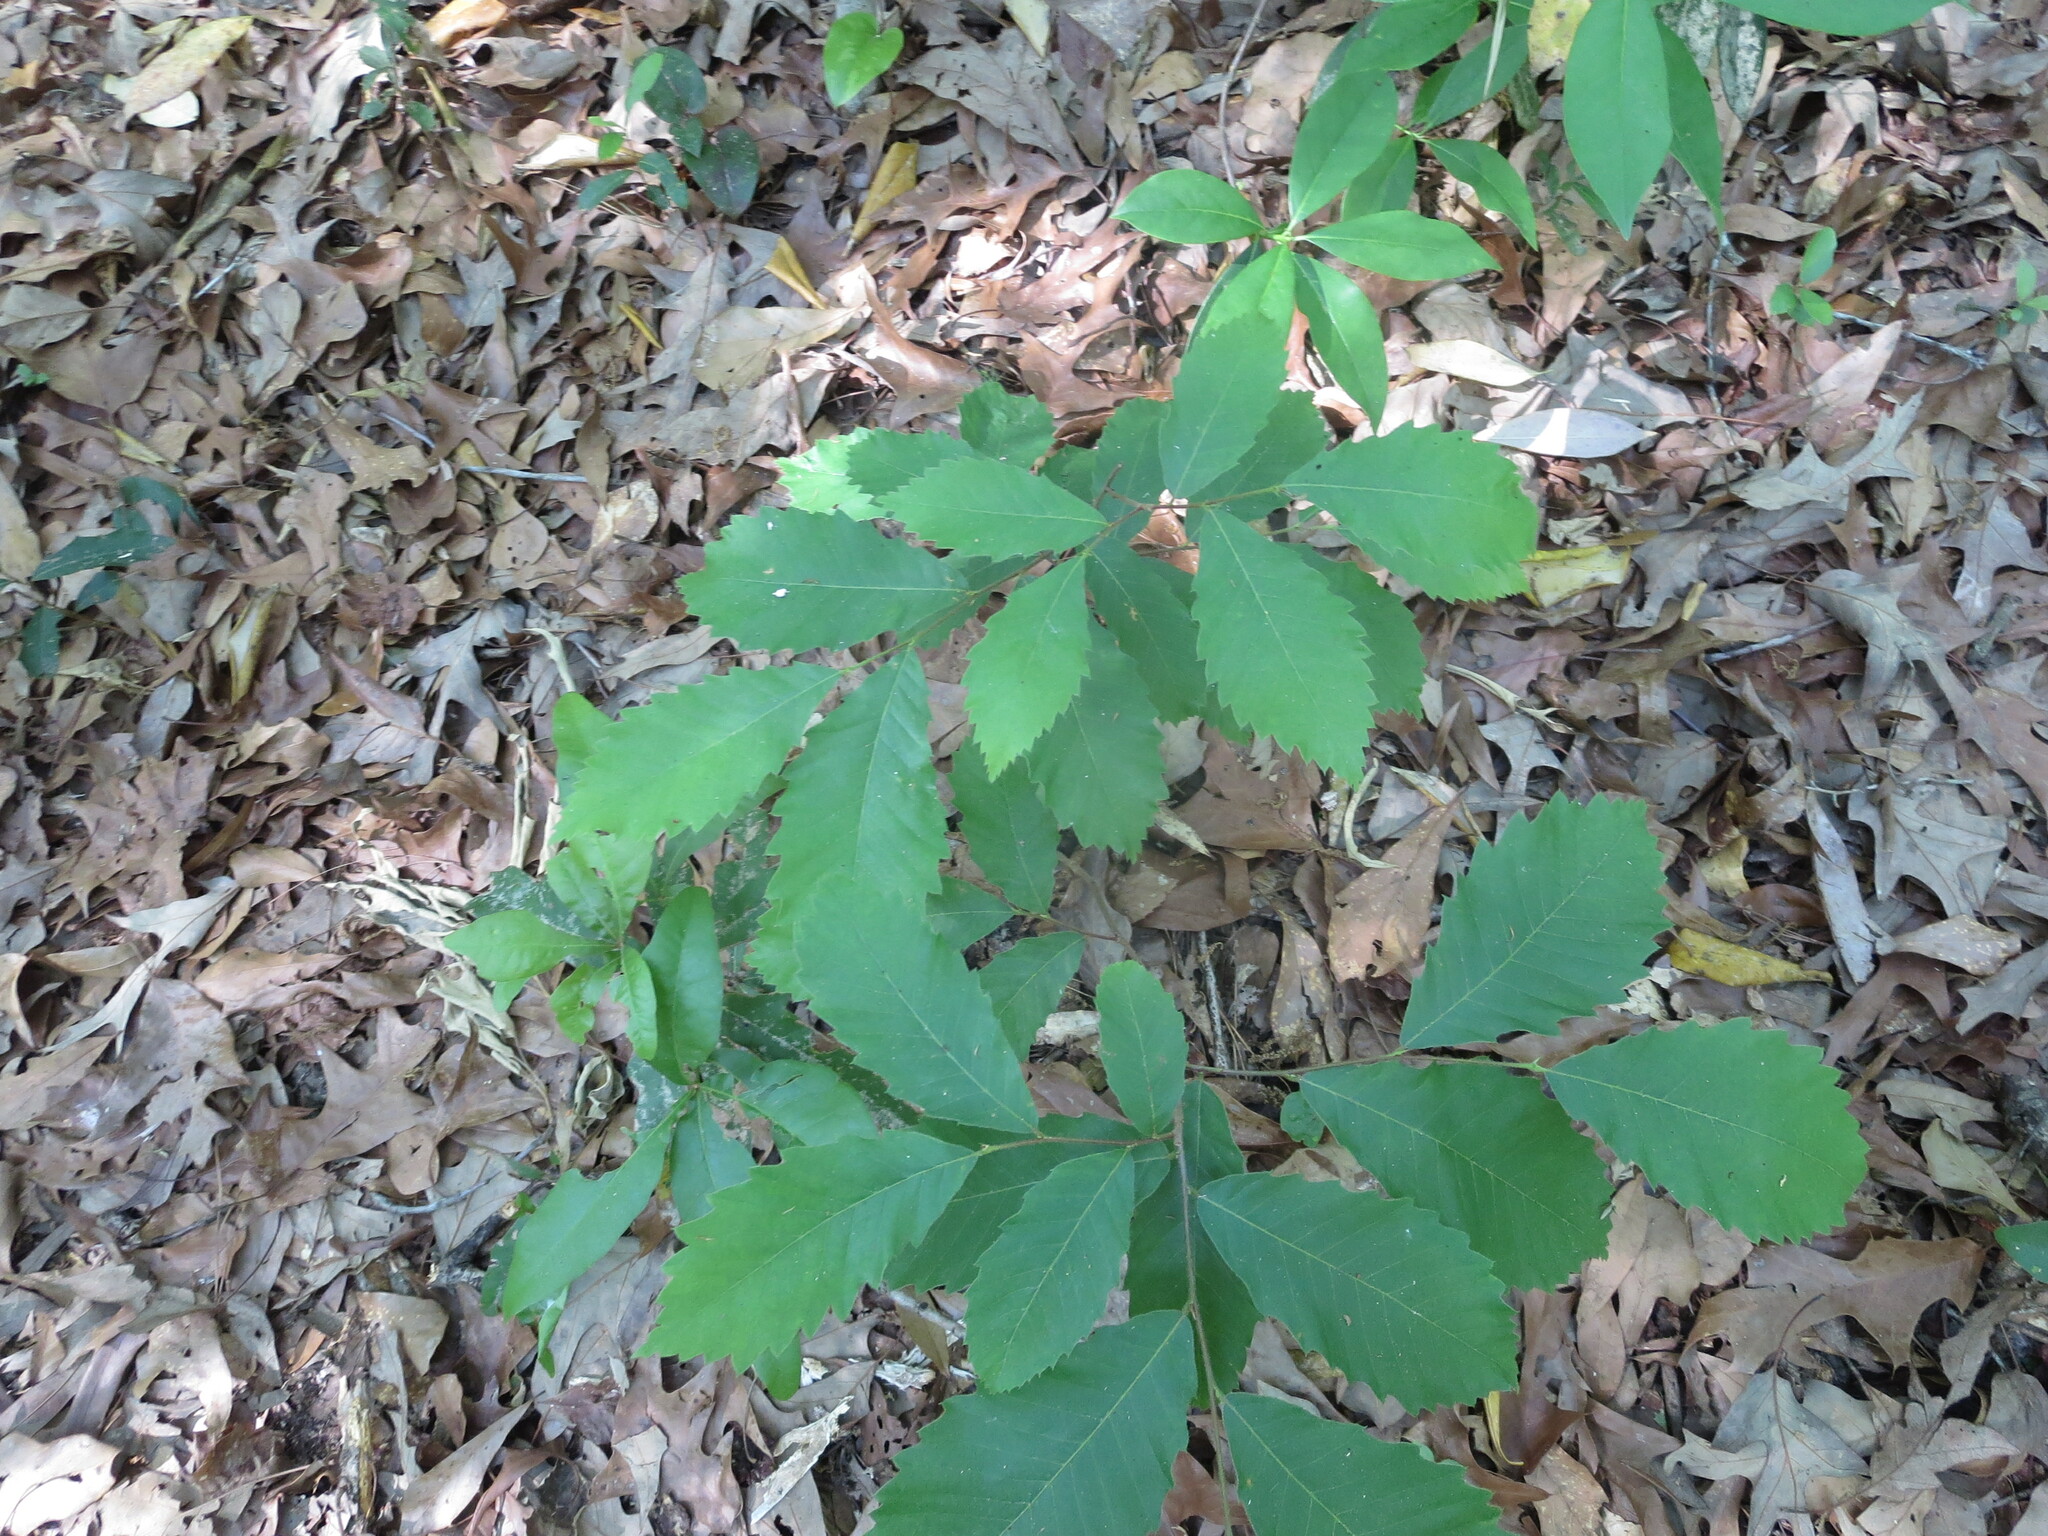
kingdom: Plantae
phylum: Tracheophyta
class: Magnoliopsida
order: Fagales
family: Fagaceae
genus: Castanea
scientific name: Castanea pumila
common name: Chinkapin
